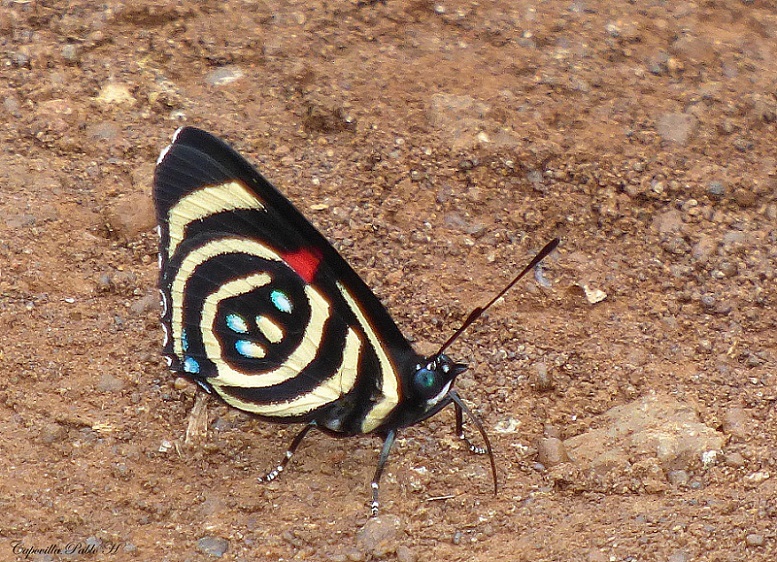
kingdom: Animalia
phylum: Arthropoda
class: Insecta
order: Lepidoptera
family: Nymphalidae
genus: Catagramma
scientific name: Catagramma Callicore hydaspes
